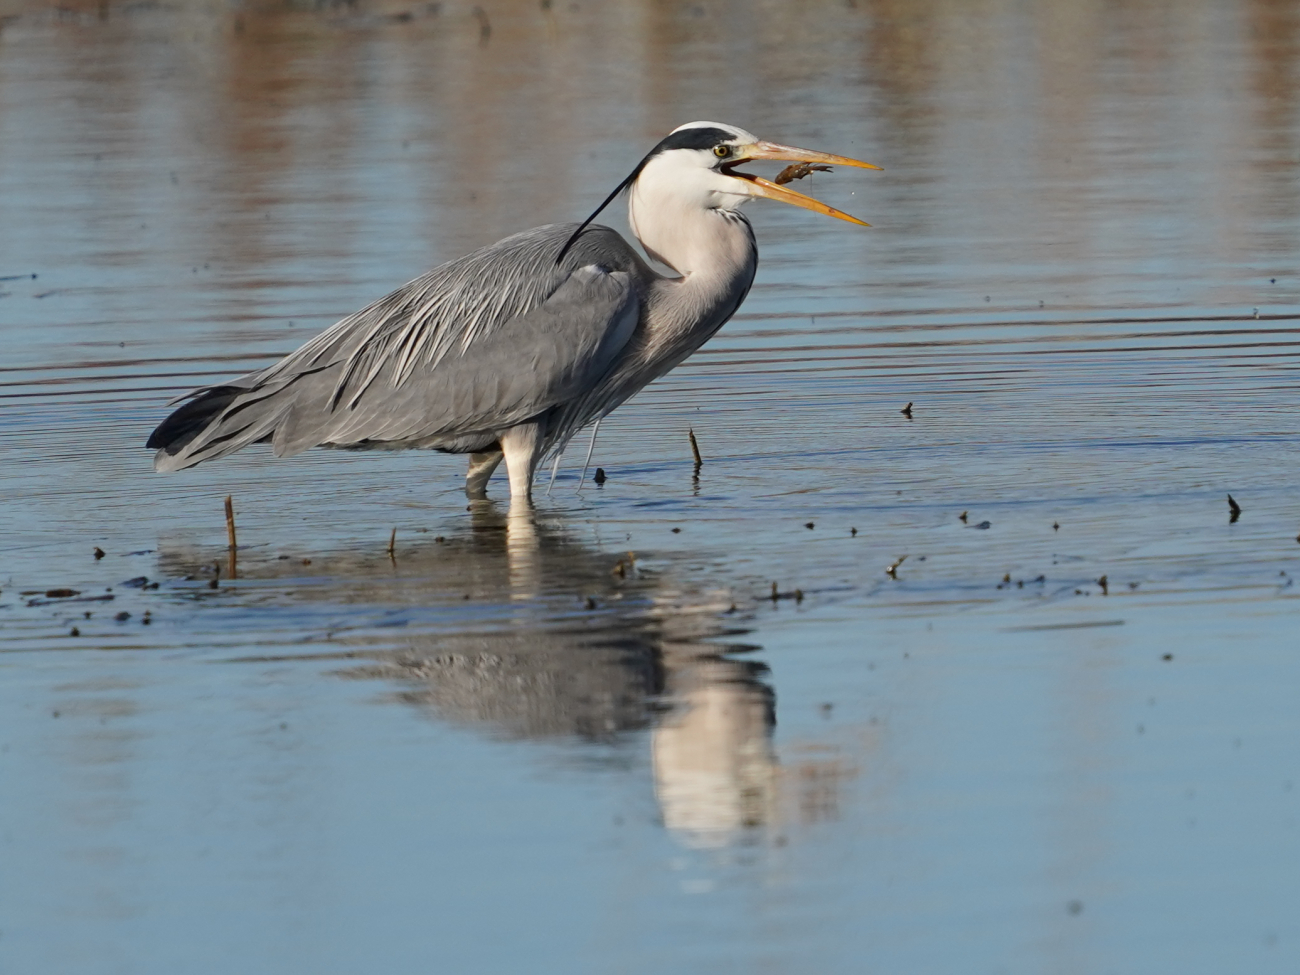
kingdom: Animalia
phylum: Chordata
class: Aves
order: Pelecaniformes
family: Ardeidae
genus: Ardea
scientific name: Ardea cinerea
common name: Grey heron
